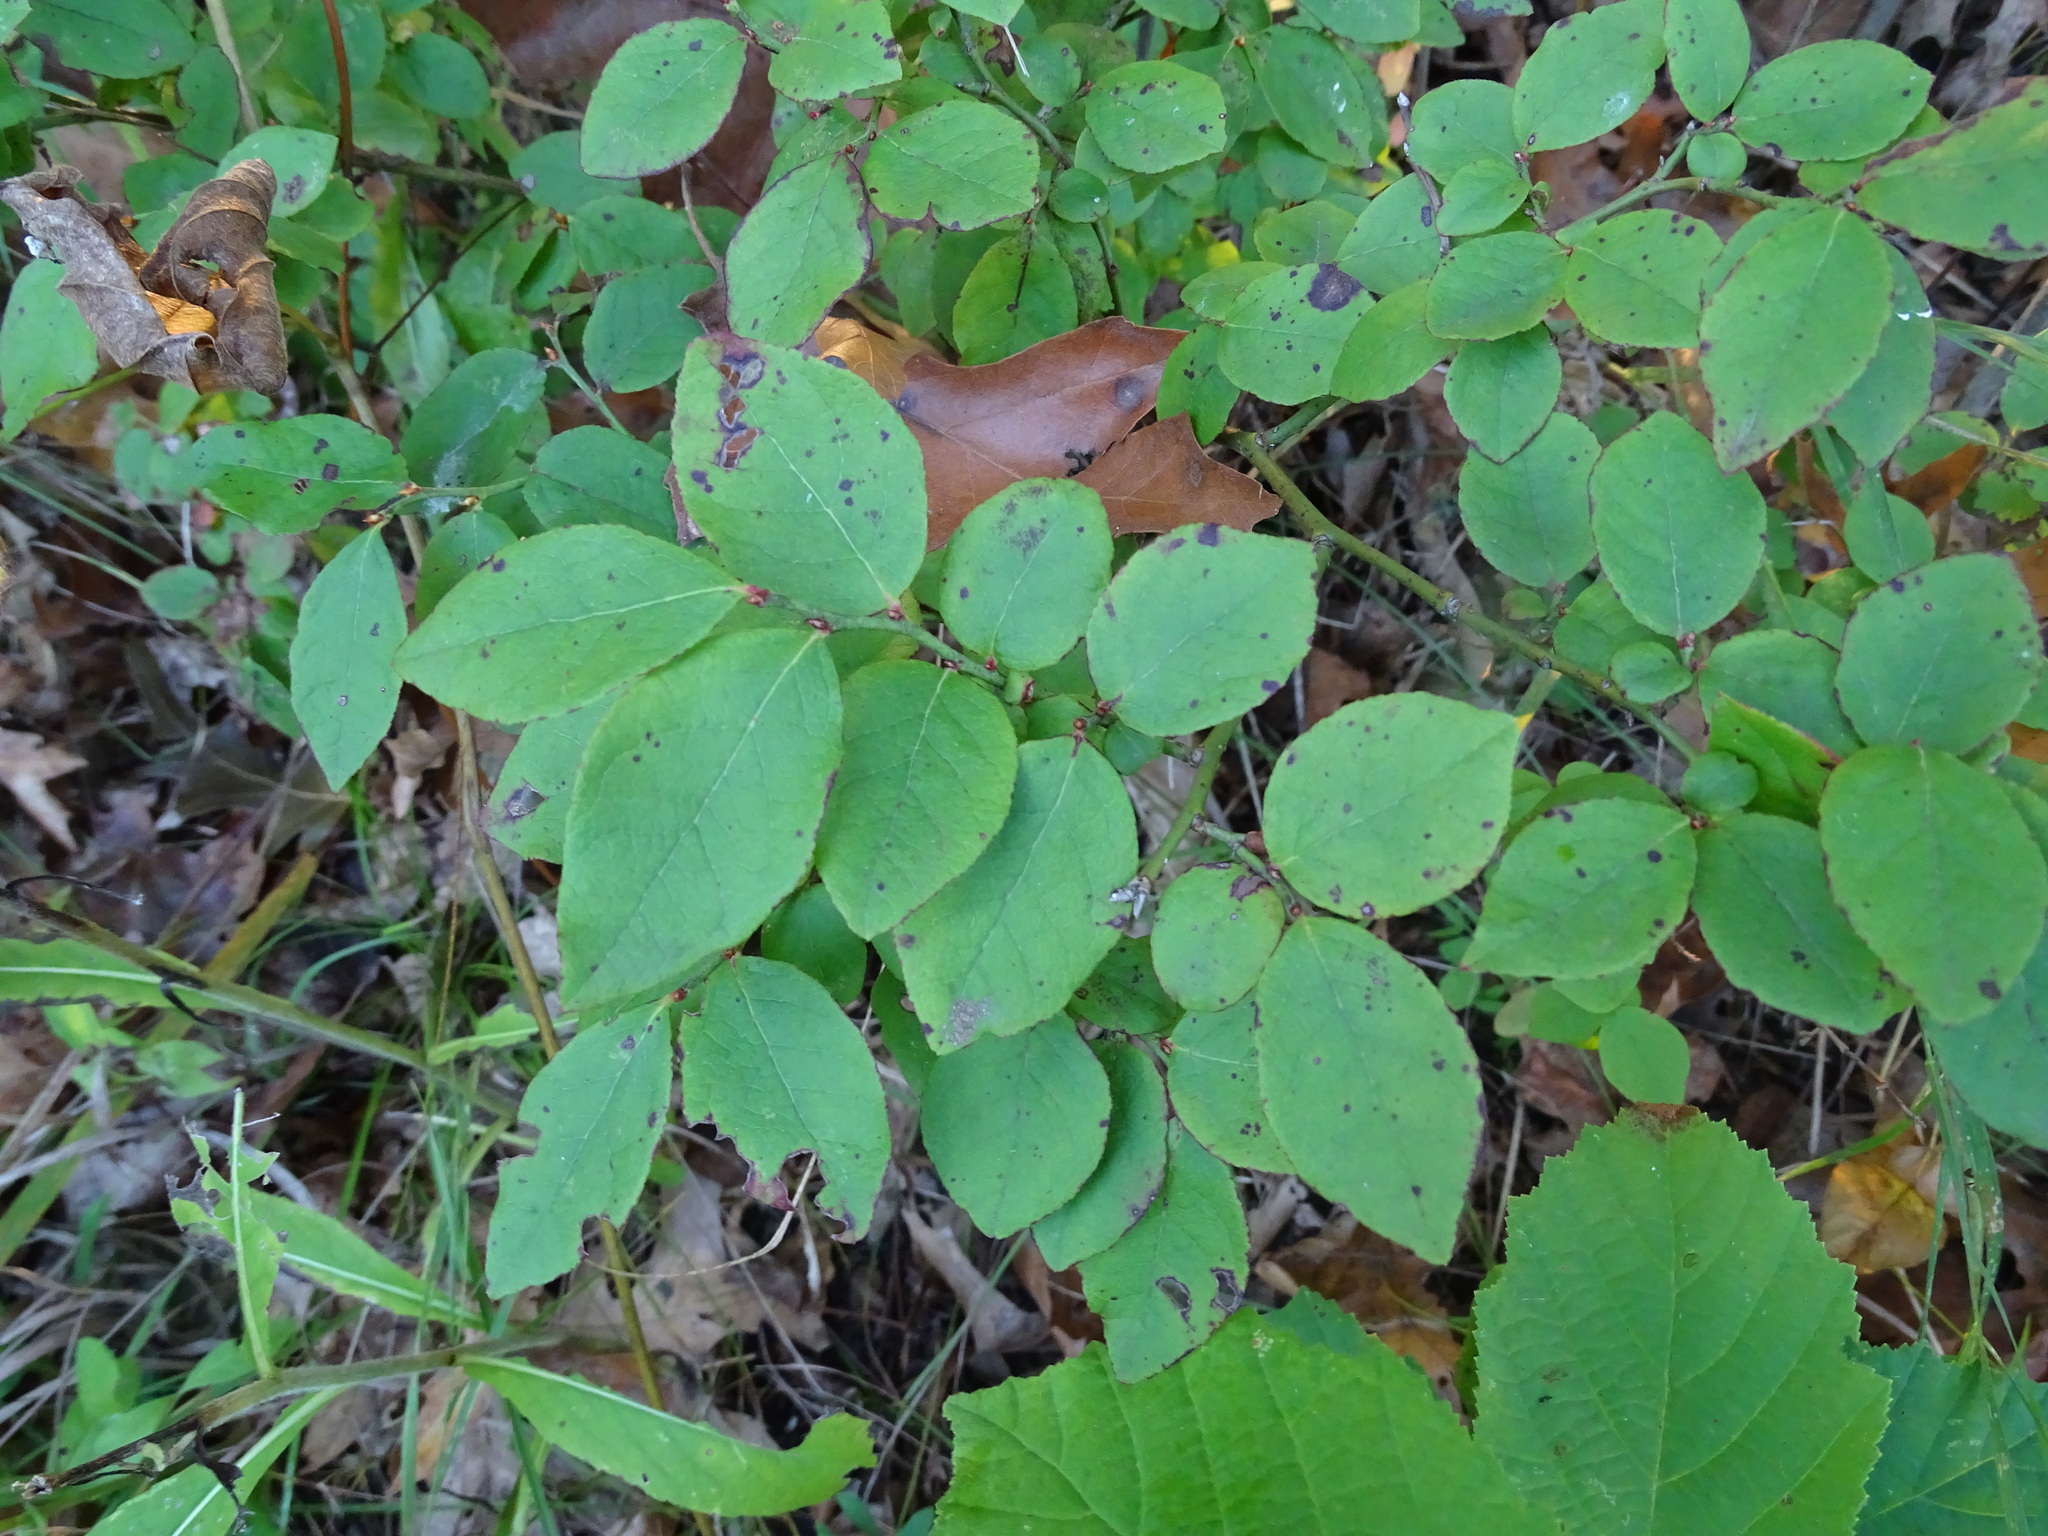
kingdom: Plantae
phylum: Tracheophyta
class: Magnoliopsida
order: Ericales
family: Ericaceae
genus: Vaccinium
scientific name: Vaccinium pallidum
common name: Blue ridge blueberry
